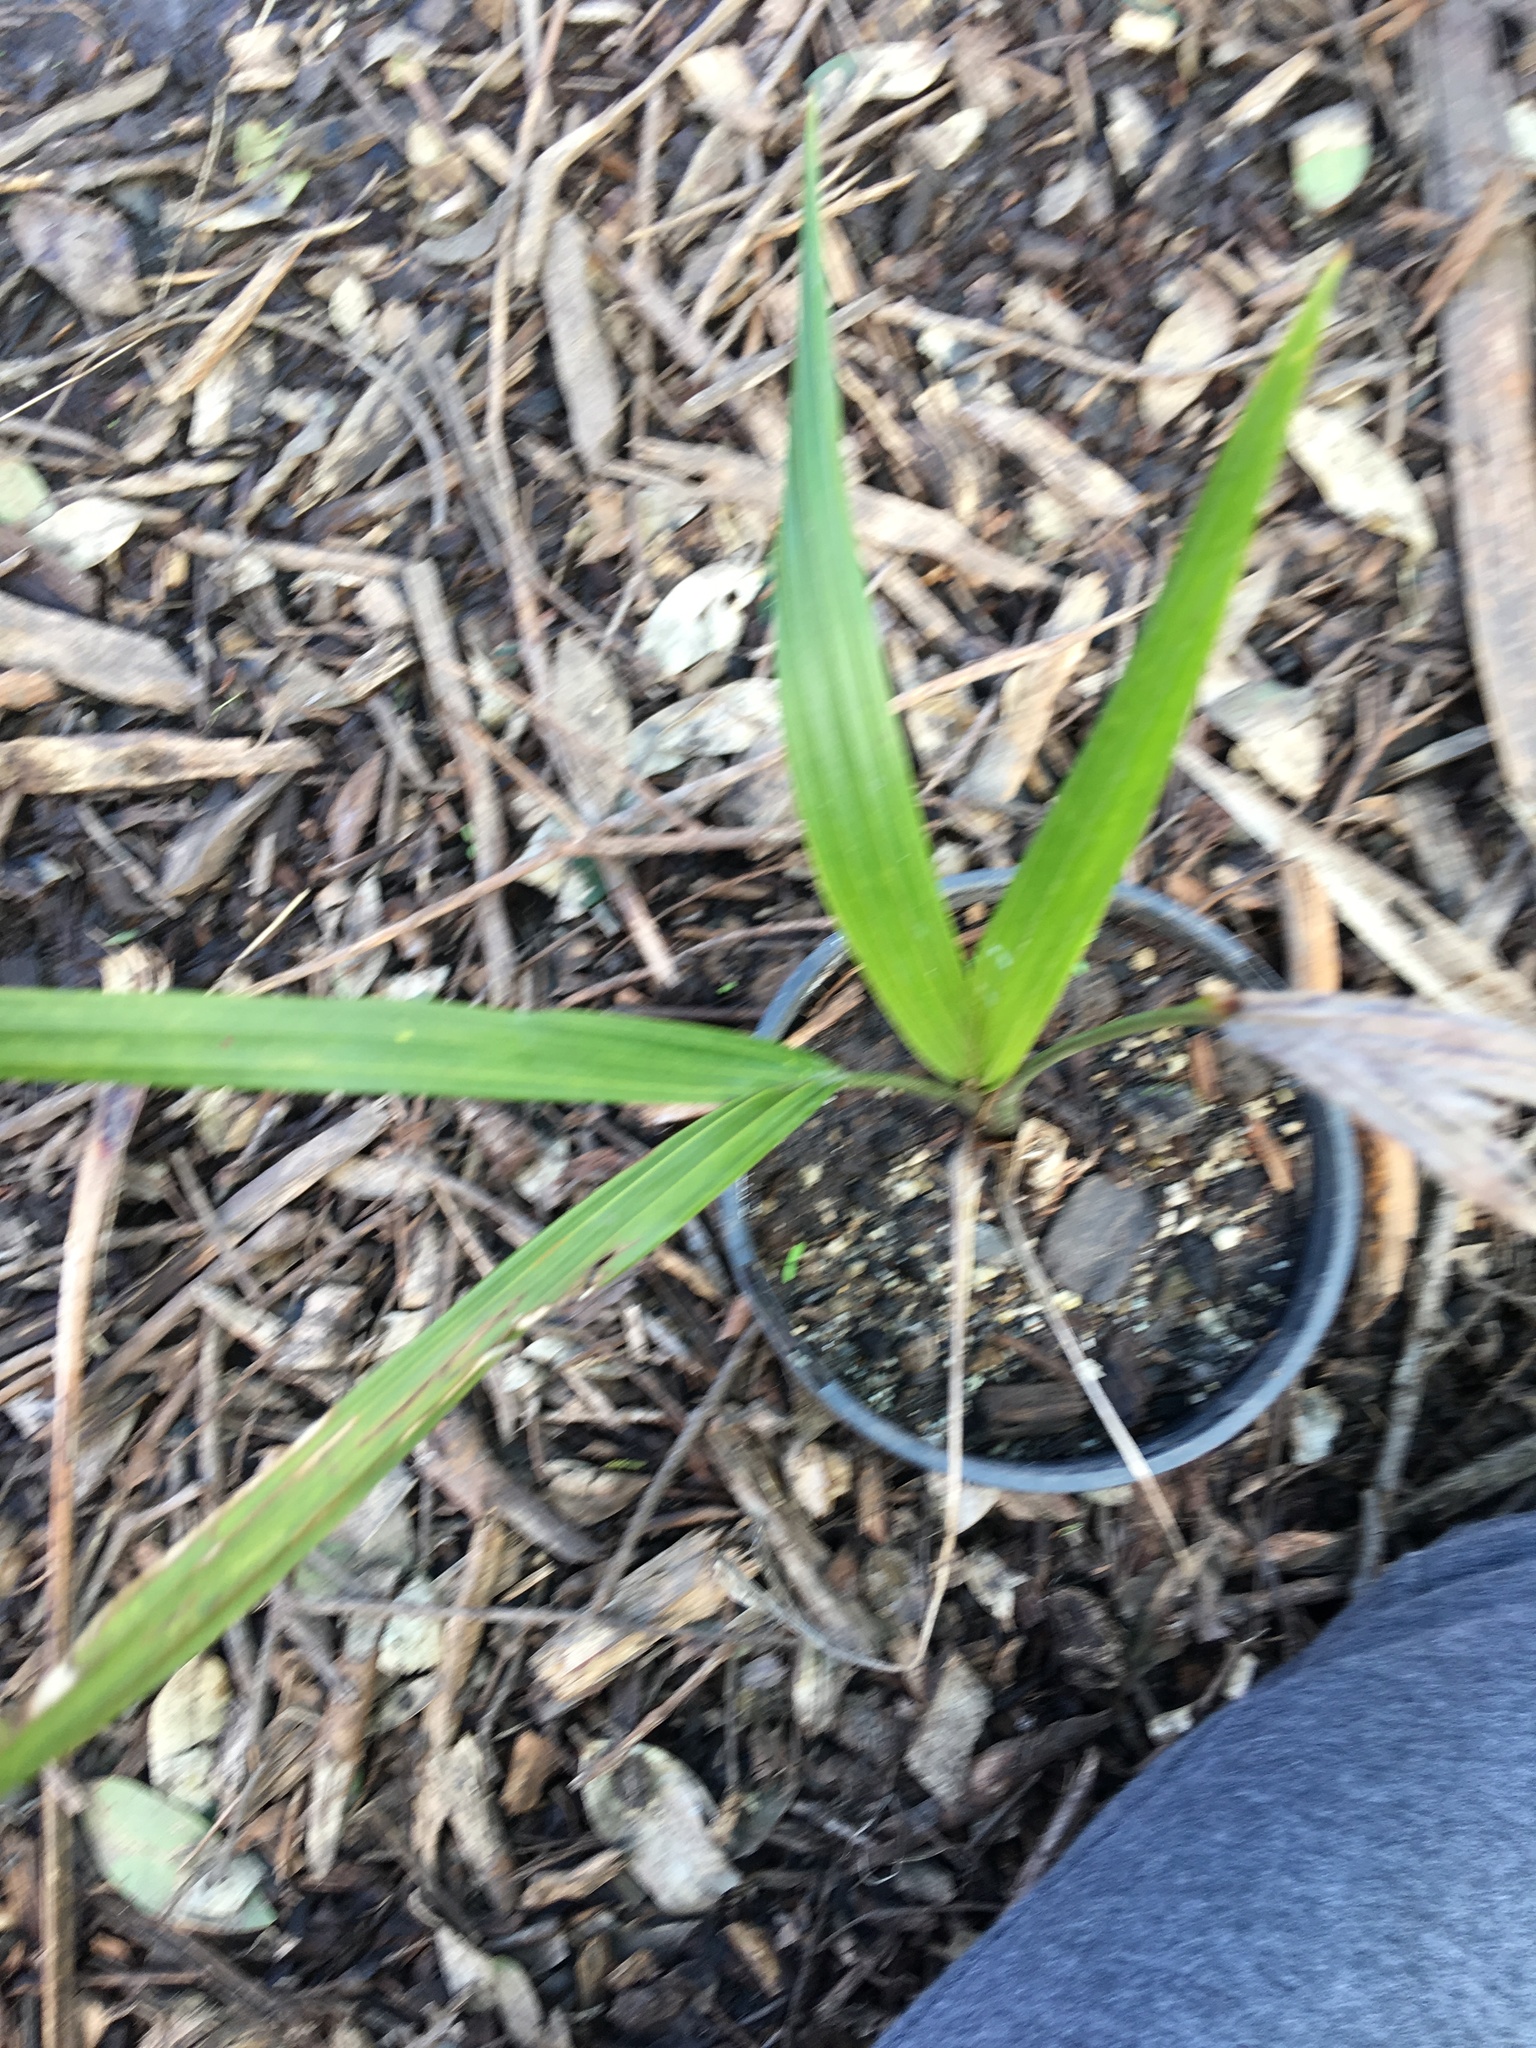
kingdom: Plantae
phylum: Tracheophyta
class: Liliopsida
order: Arecales
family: Arecaceae
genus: Rhopalostylis
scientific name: Rhopalostylis sapida
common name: Feather-duster palm
